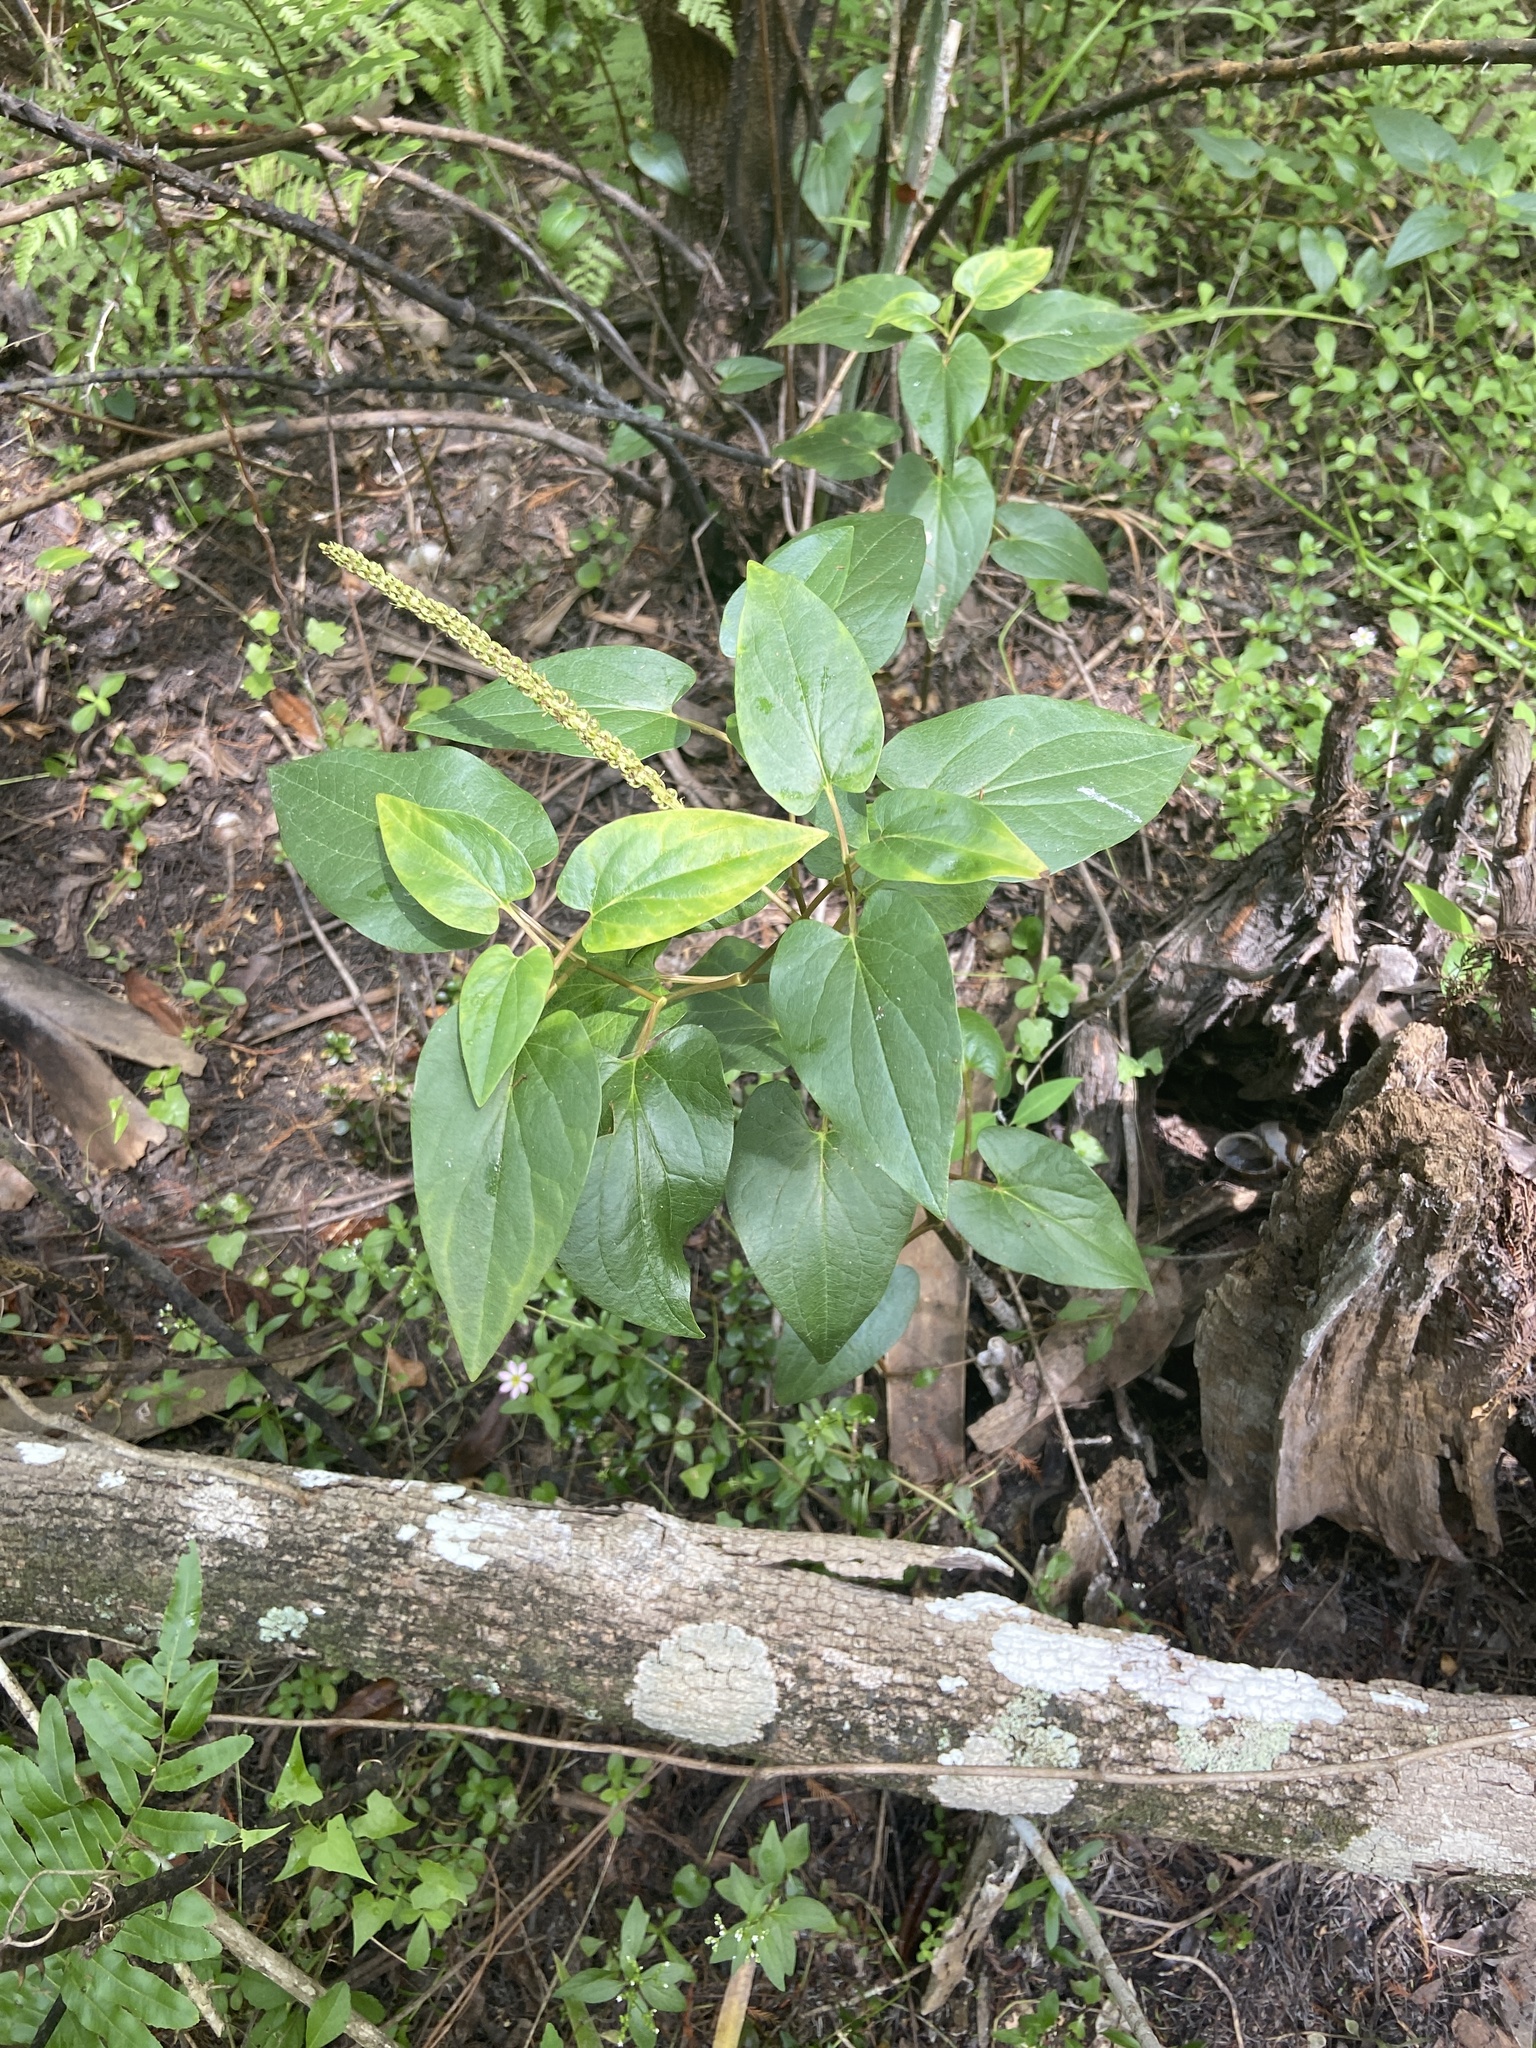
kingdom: Plantae
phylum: Tracheophyta
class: Magnoliopsida
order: Piperales
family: Saururaceae
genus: Saururus
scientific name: Saururus cernuus
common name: Lizard's-tail
